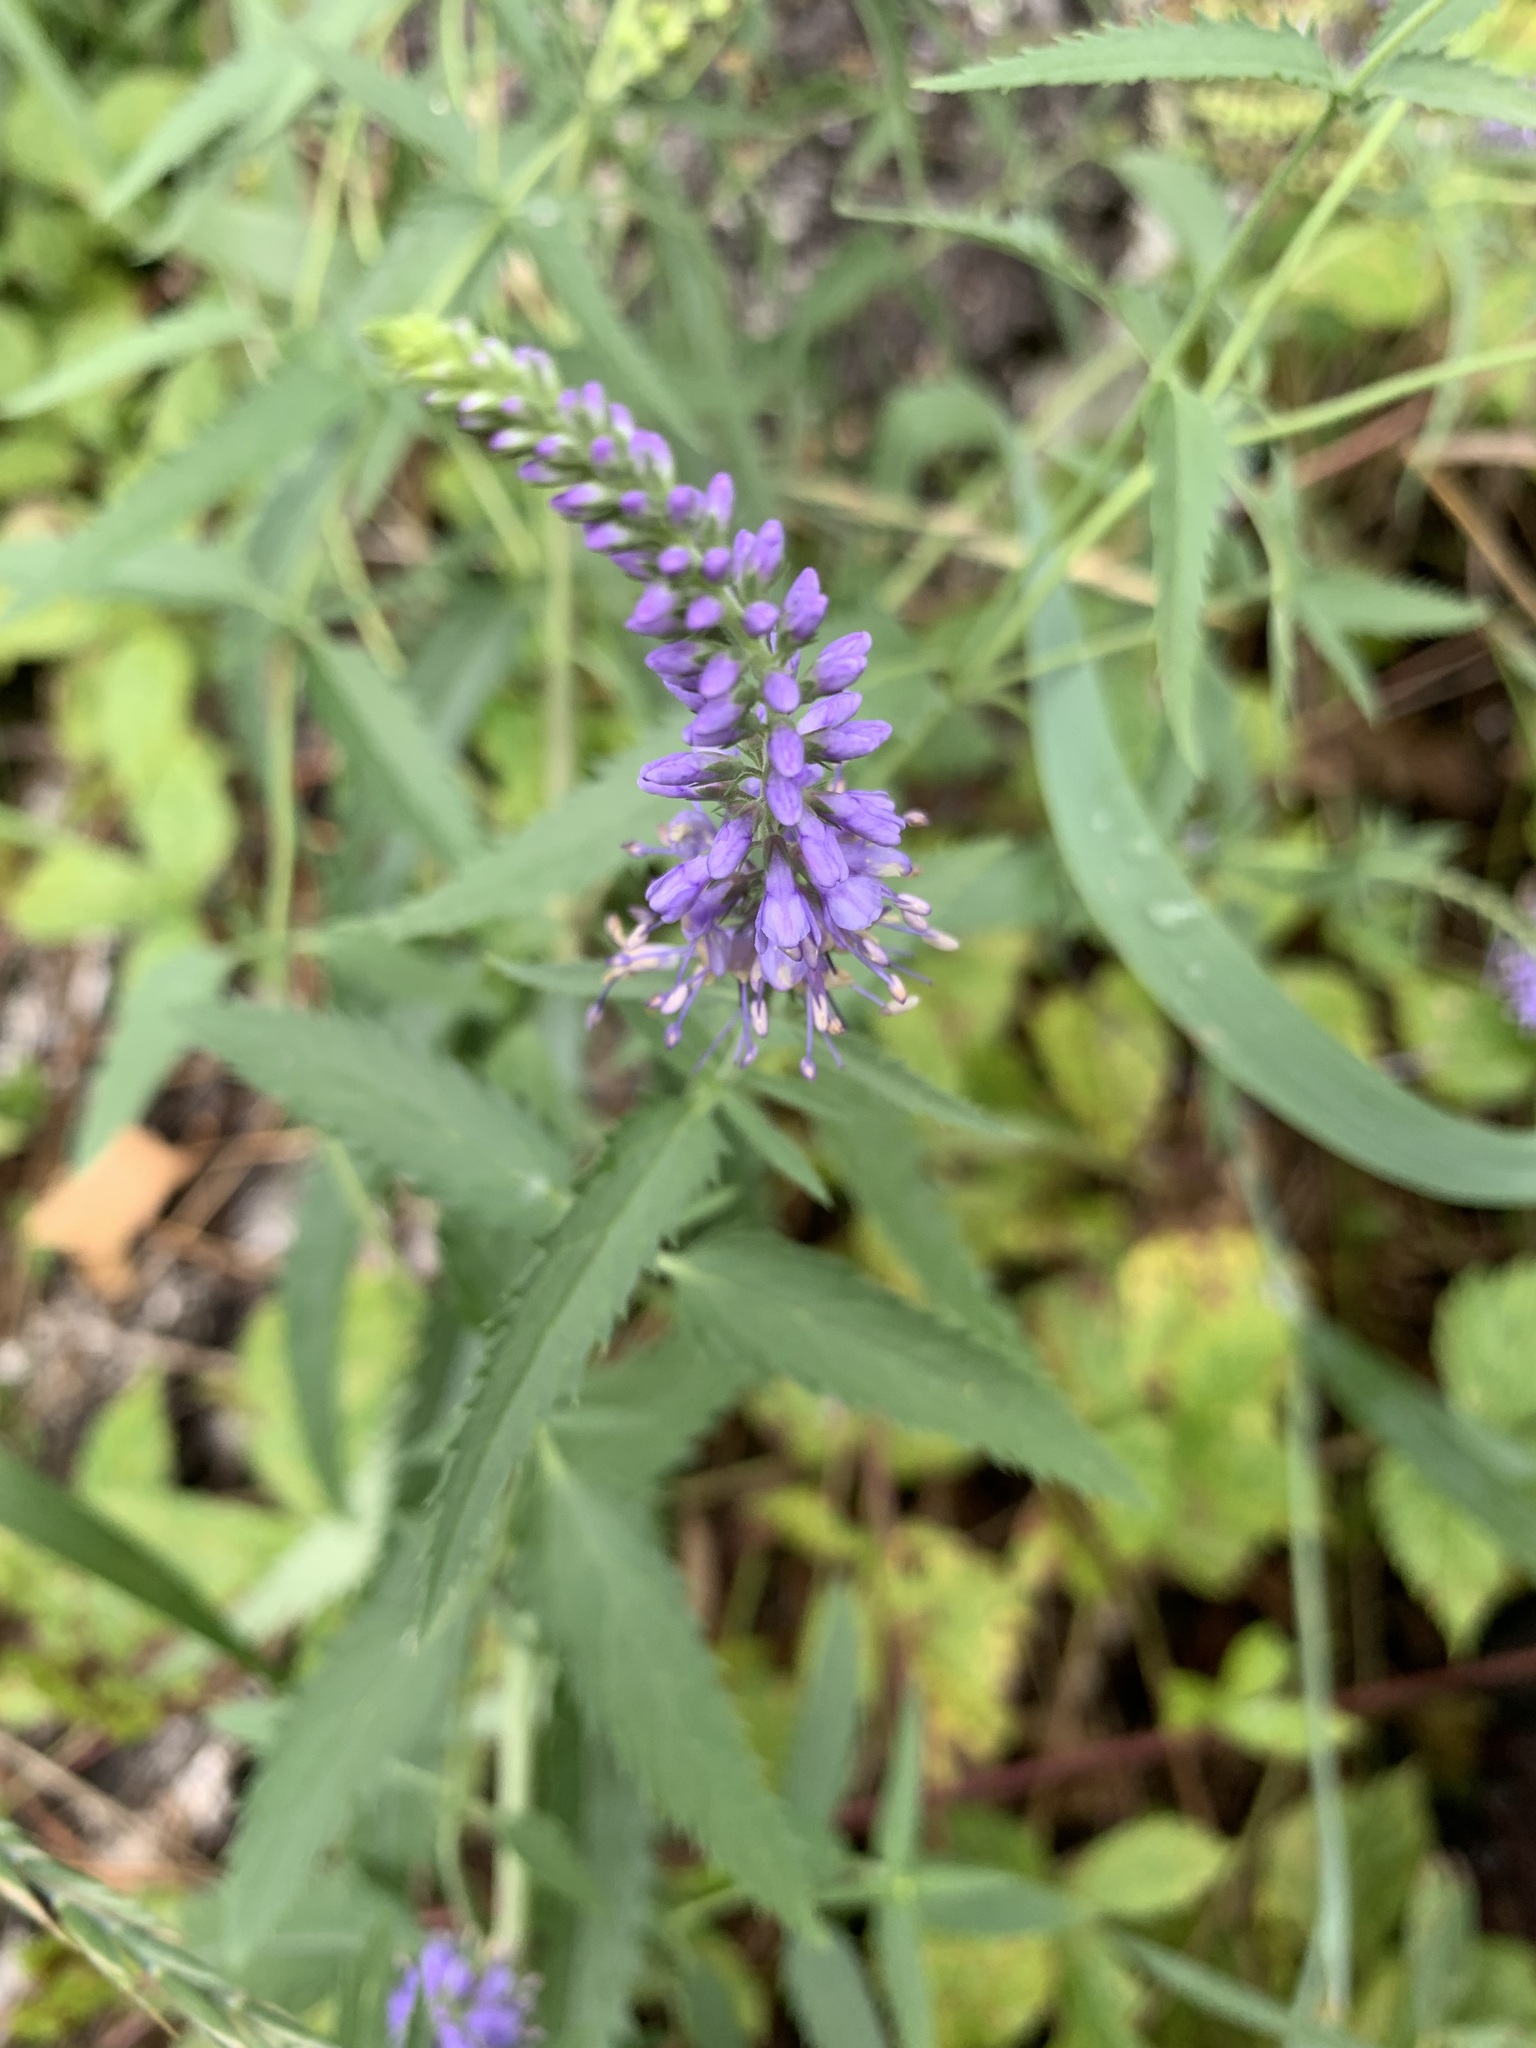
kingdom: Plantae
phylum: Tracheophyta
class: Magnoliopsida
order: Lamiales
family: Plantaginaceae
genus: Veronica
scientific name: Veronica longifolia
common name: Garden speedwell
